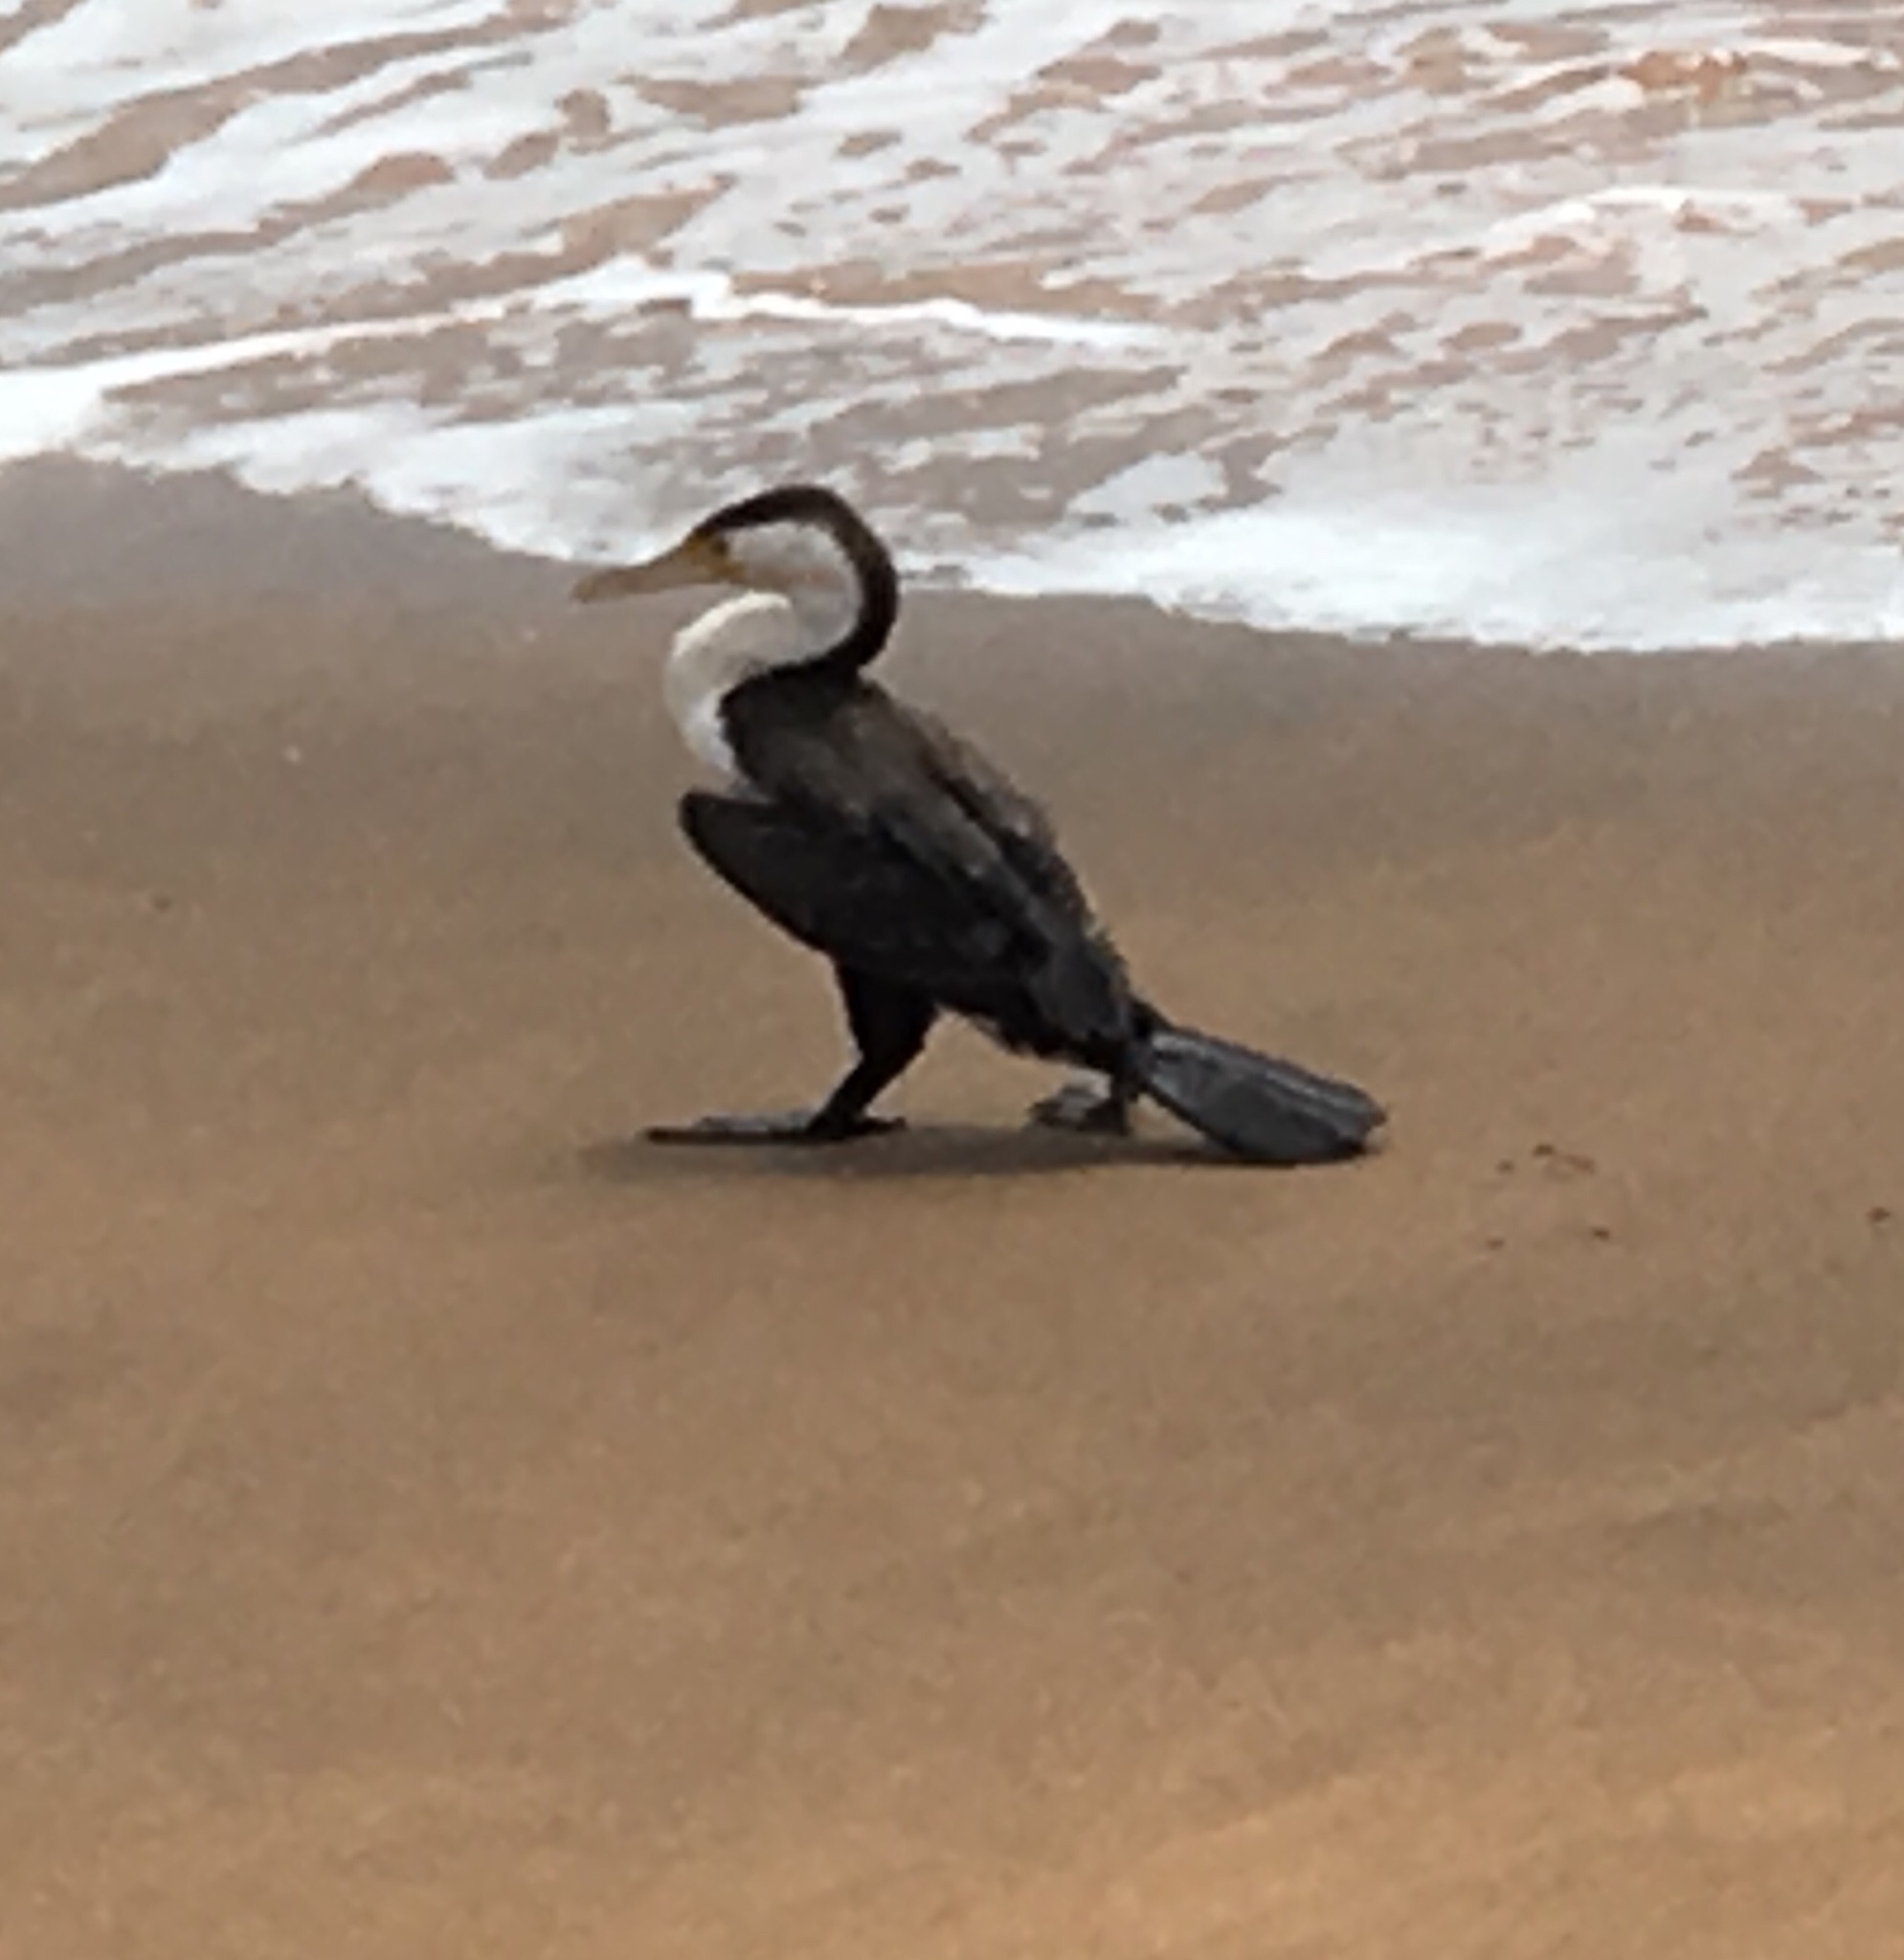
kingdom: Animalia
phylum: Chordata
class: Aves
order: Suliformes
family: Phalacrocoracidae
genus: Phalacrocorax
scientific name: Phalacrocorax varius
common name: Pied cormorant
